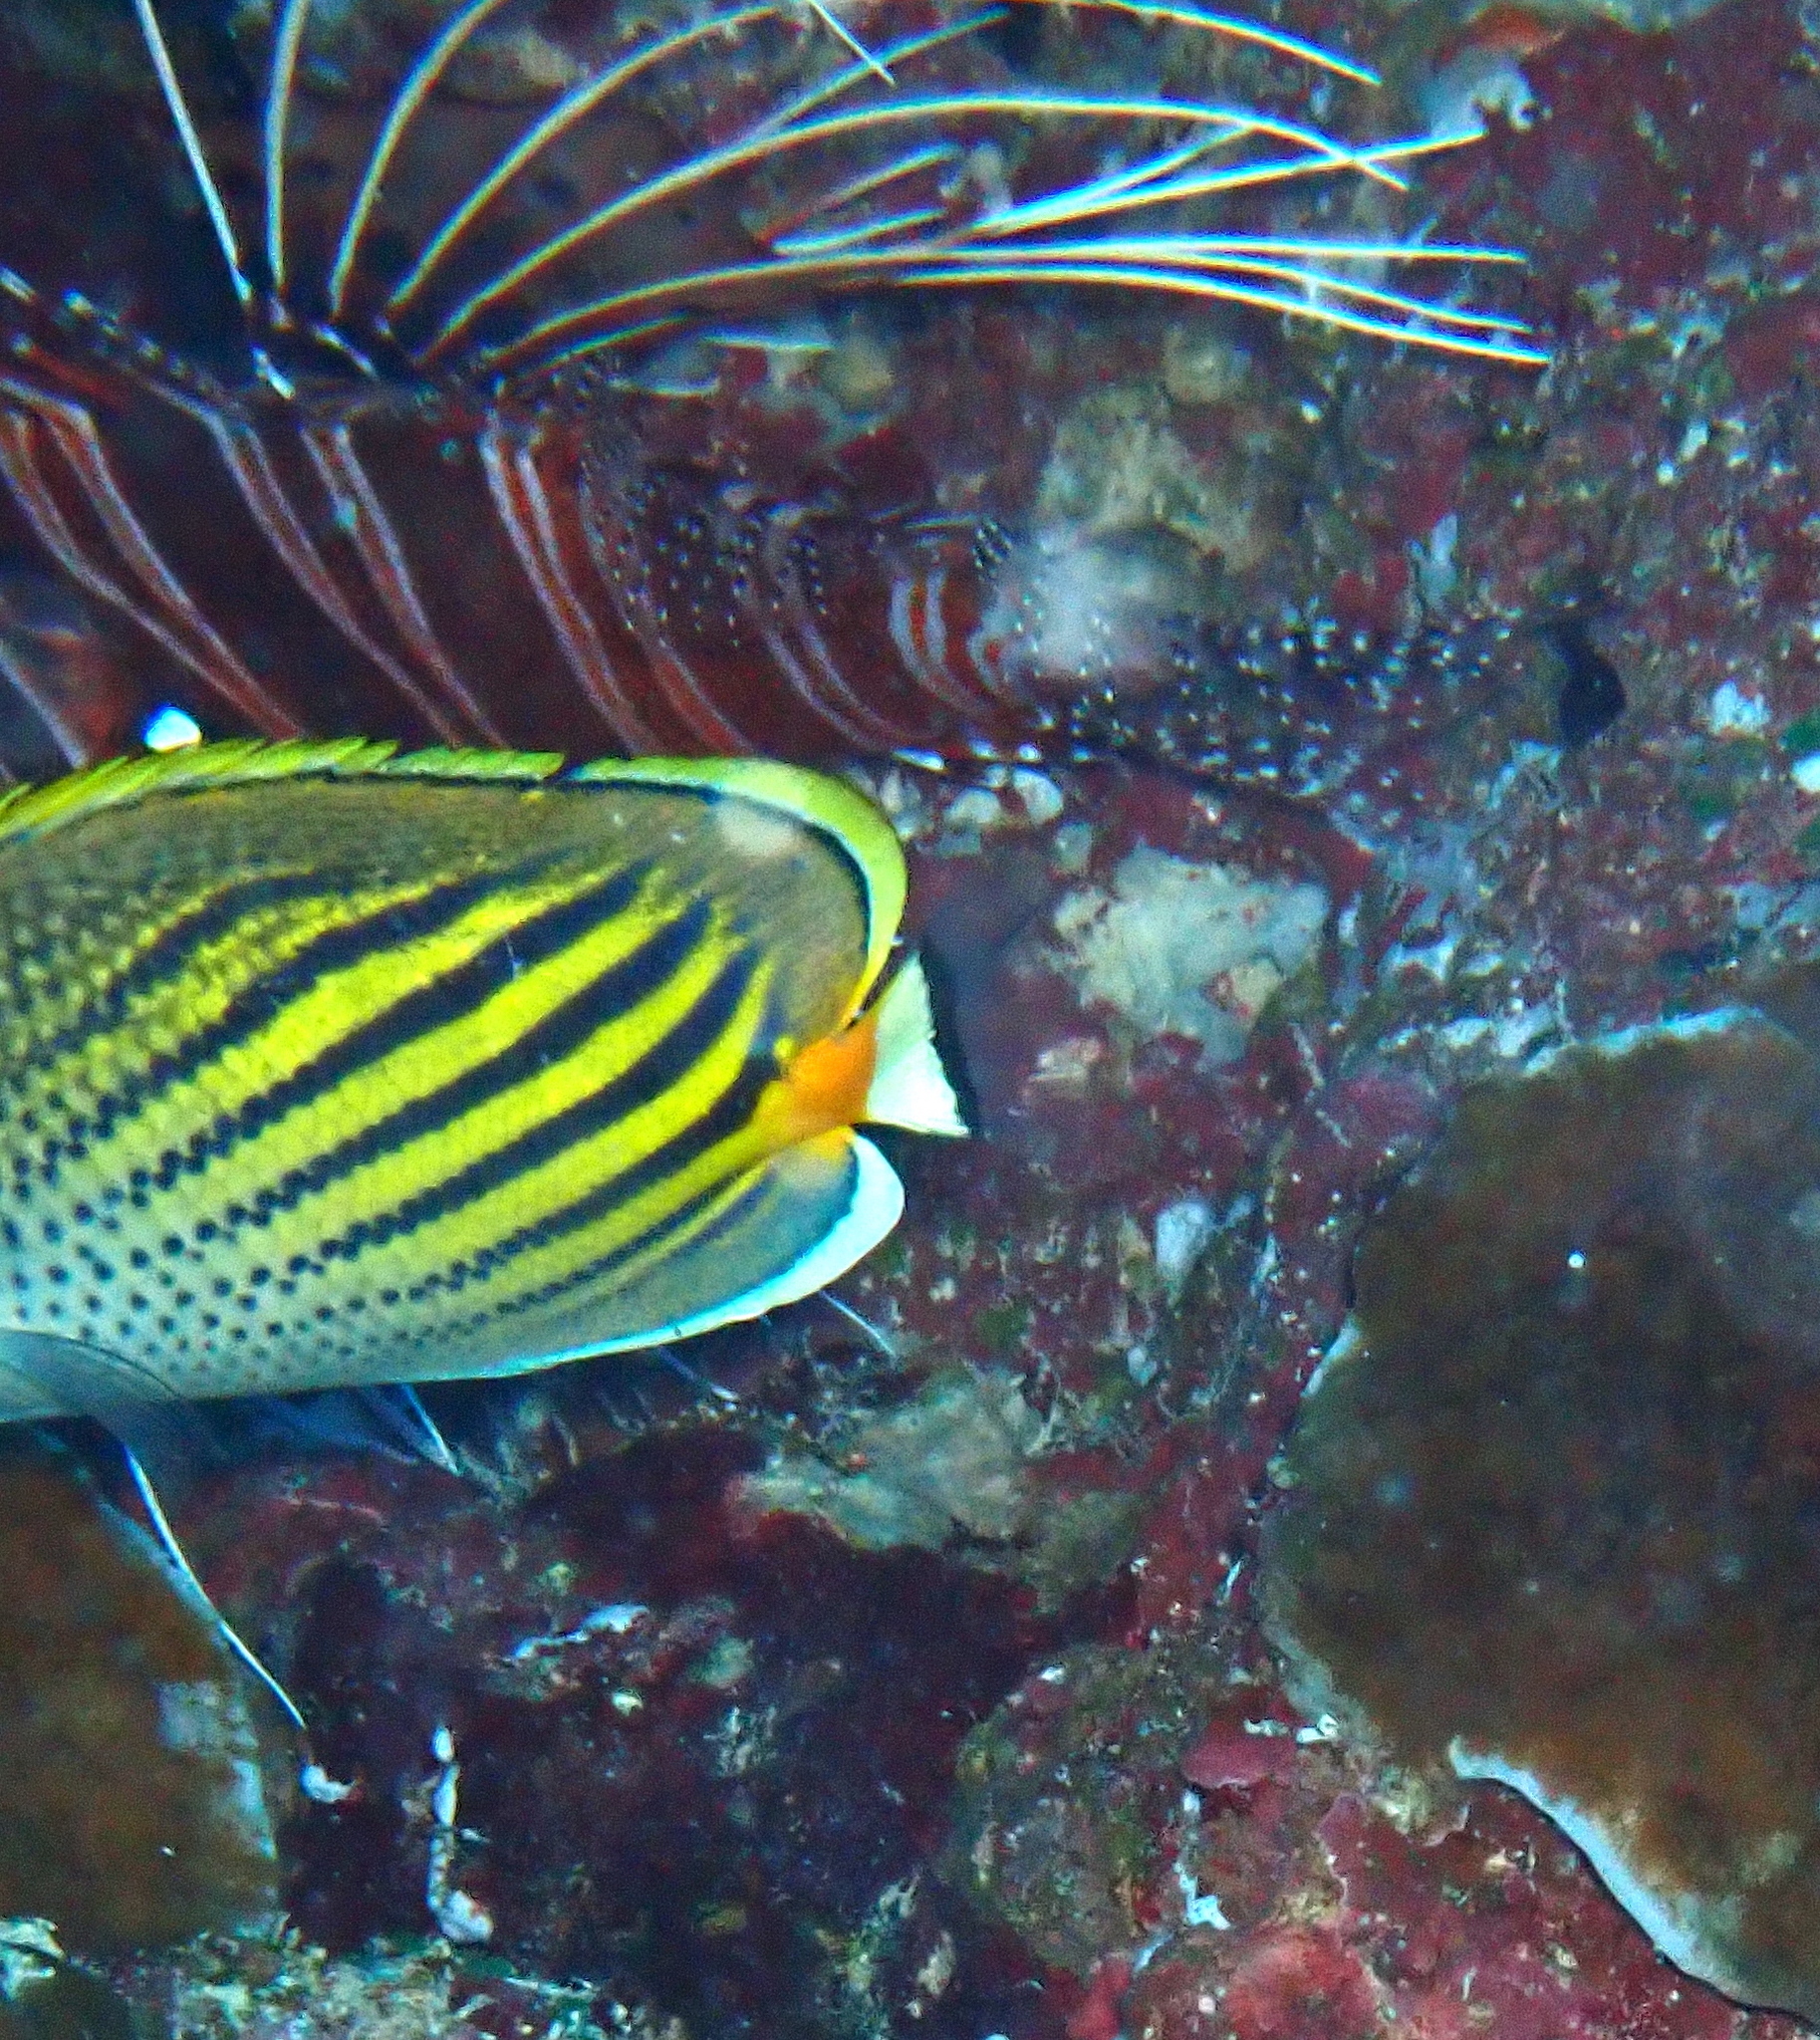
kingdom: Animalia
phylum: Chordata
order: Scorpaeniformes
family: Scorpaenidae
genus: Pterois
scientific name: Pterois antennata
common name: Spotfin lionfish
